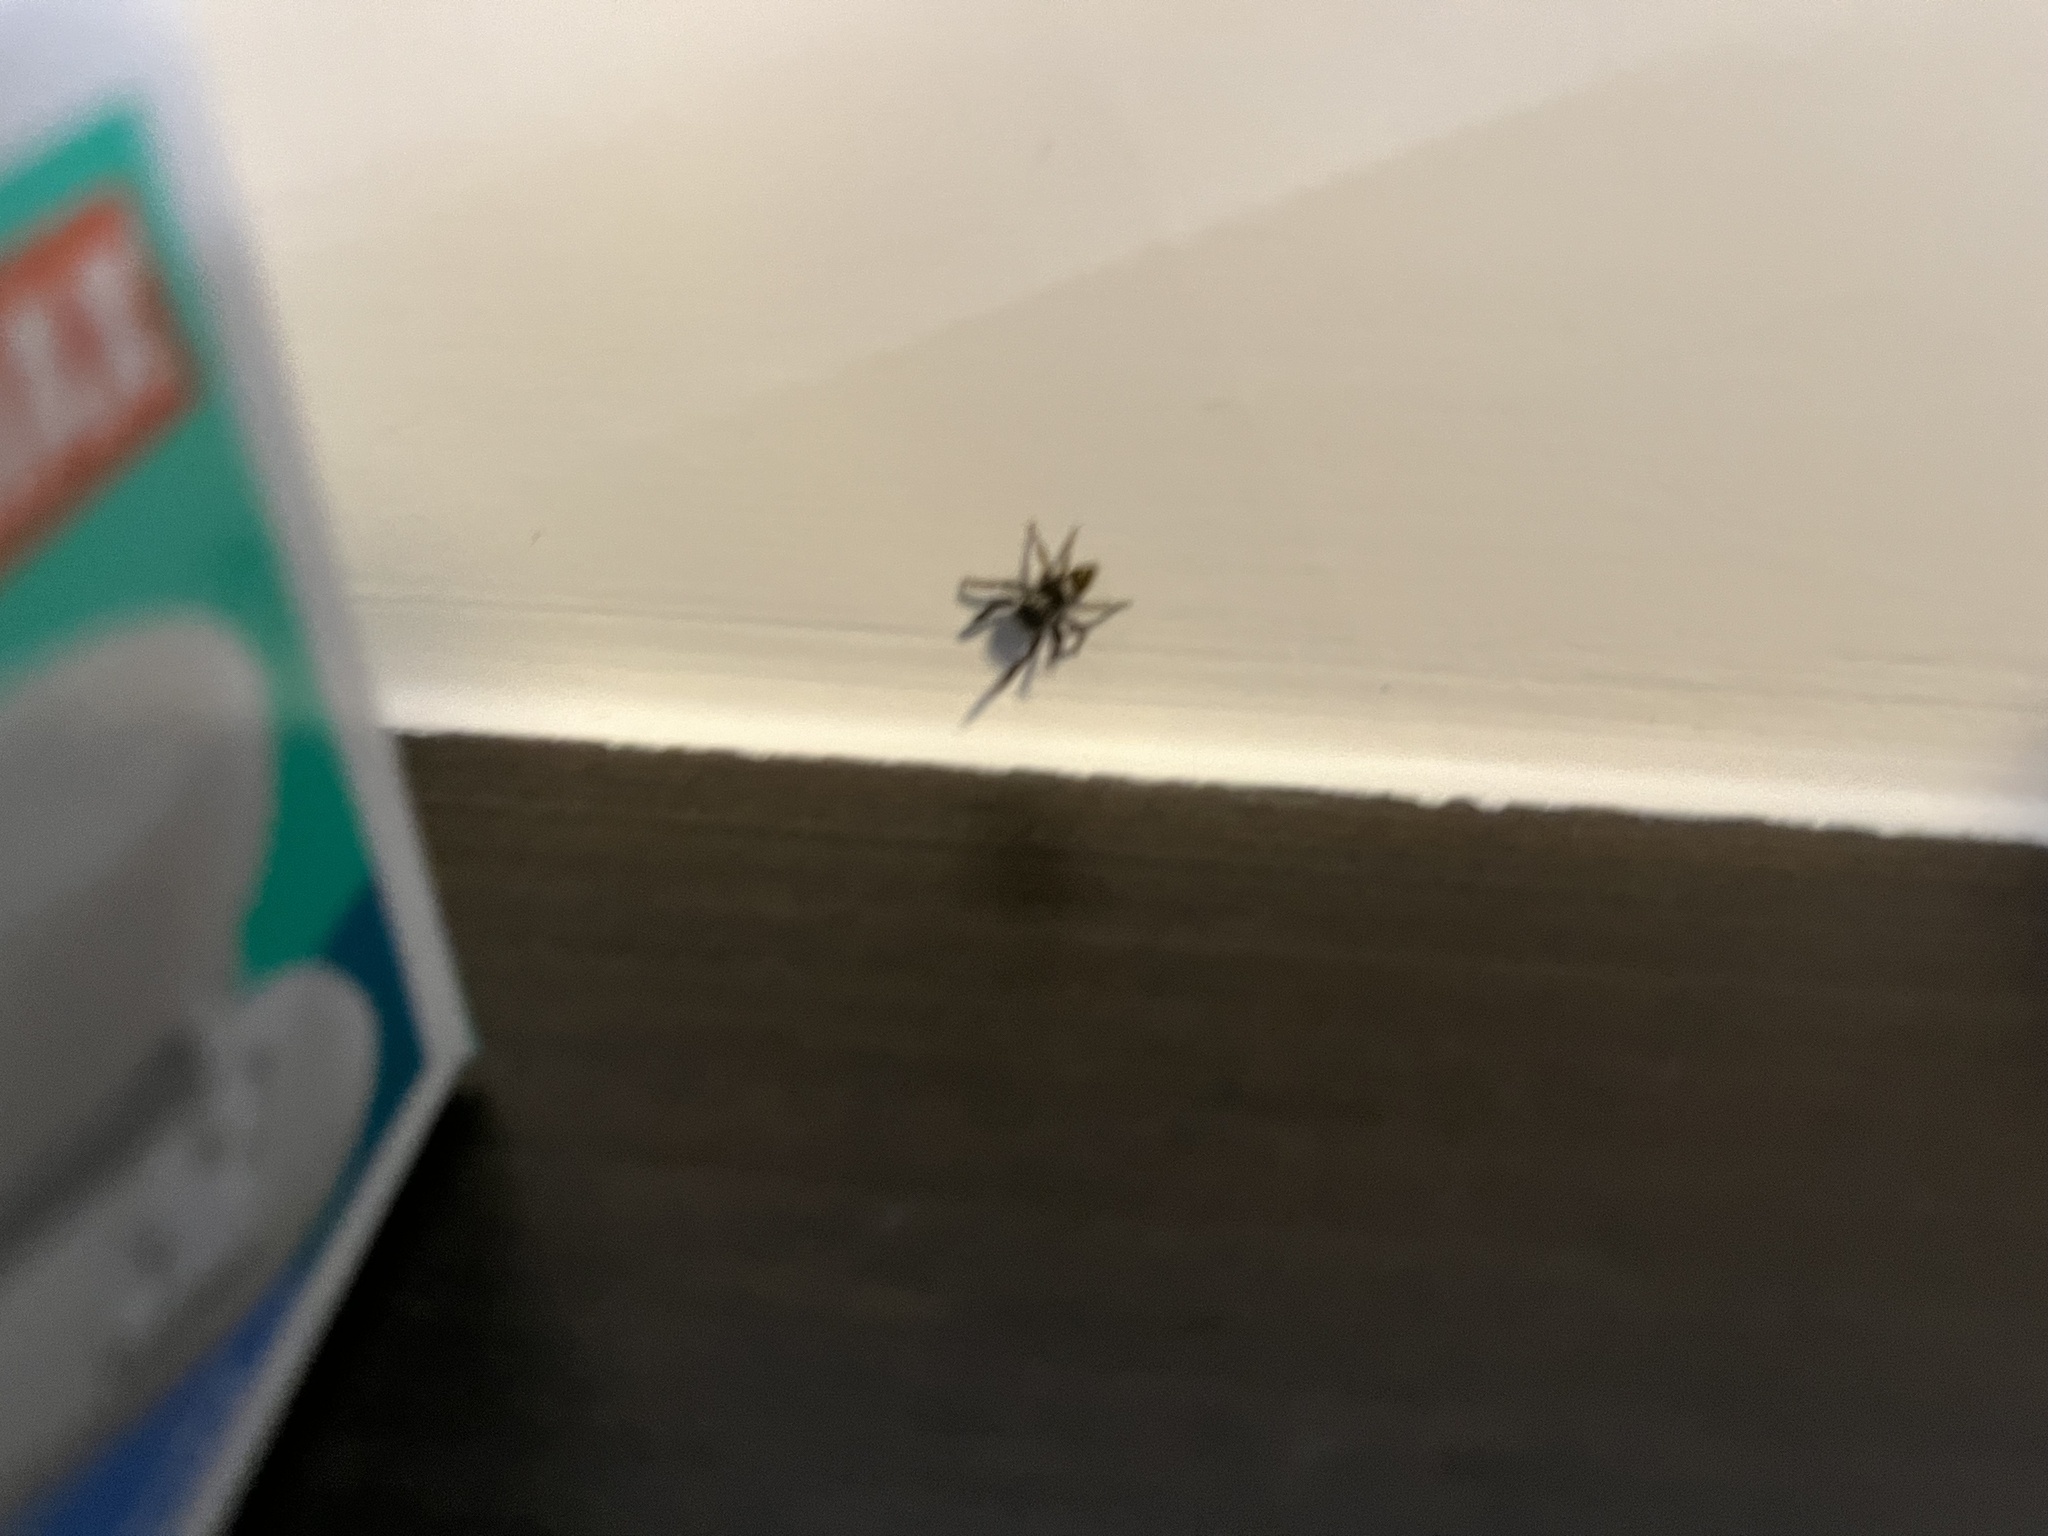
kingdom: Animalia
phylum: Arthropoda
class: Arachnida
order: Araneae
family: Salticidae
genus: Hasarius
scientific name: Hasarius adansoni
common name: Jumping spider
